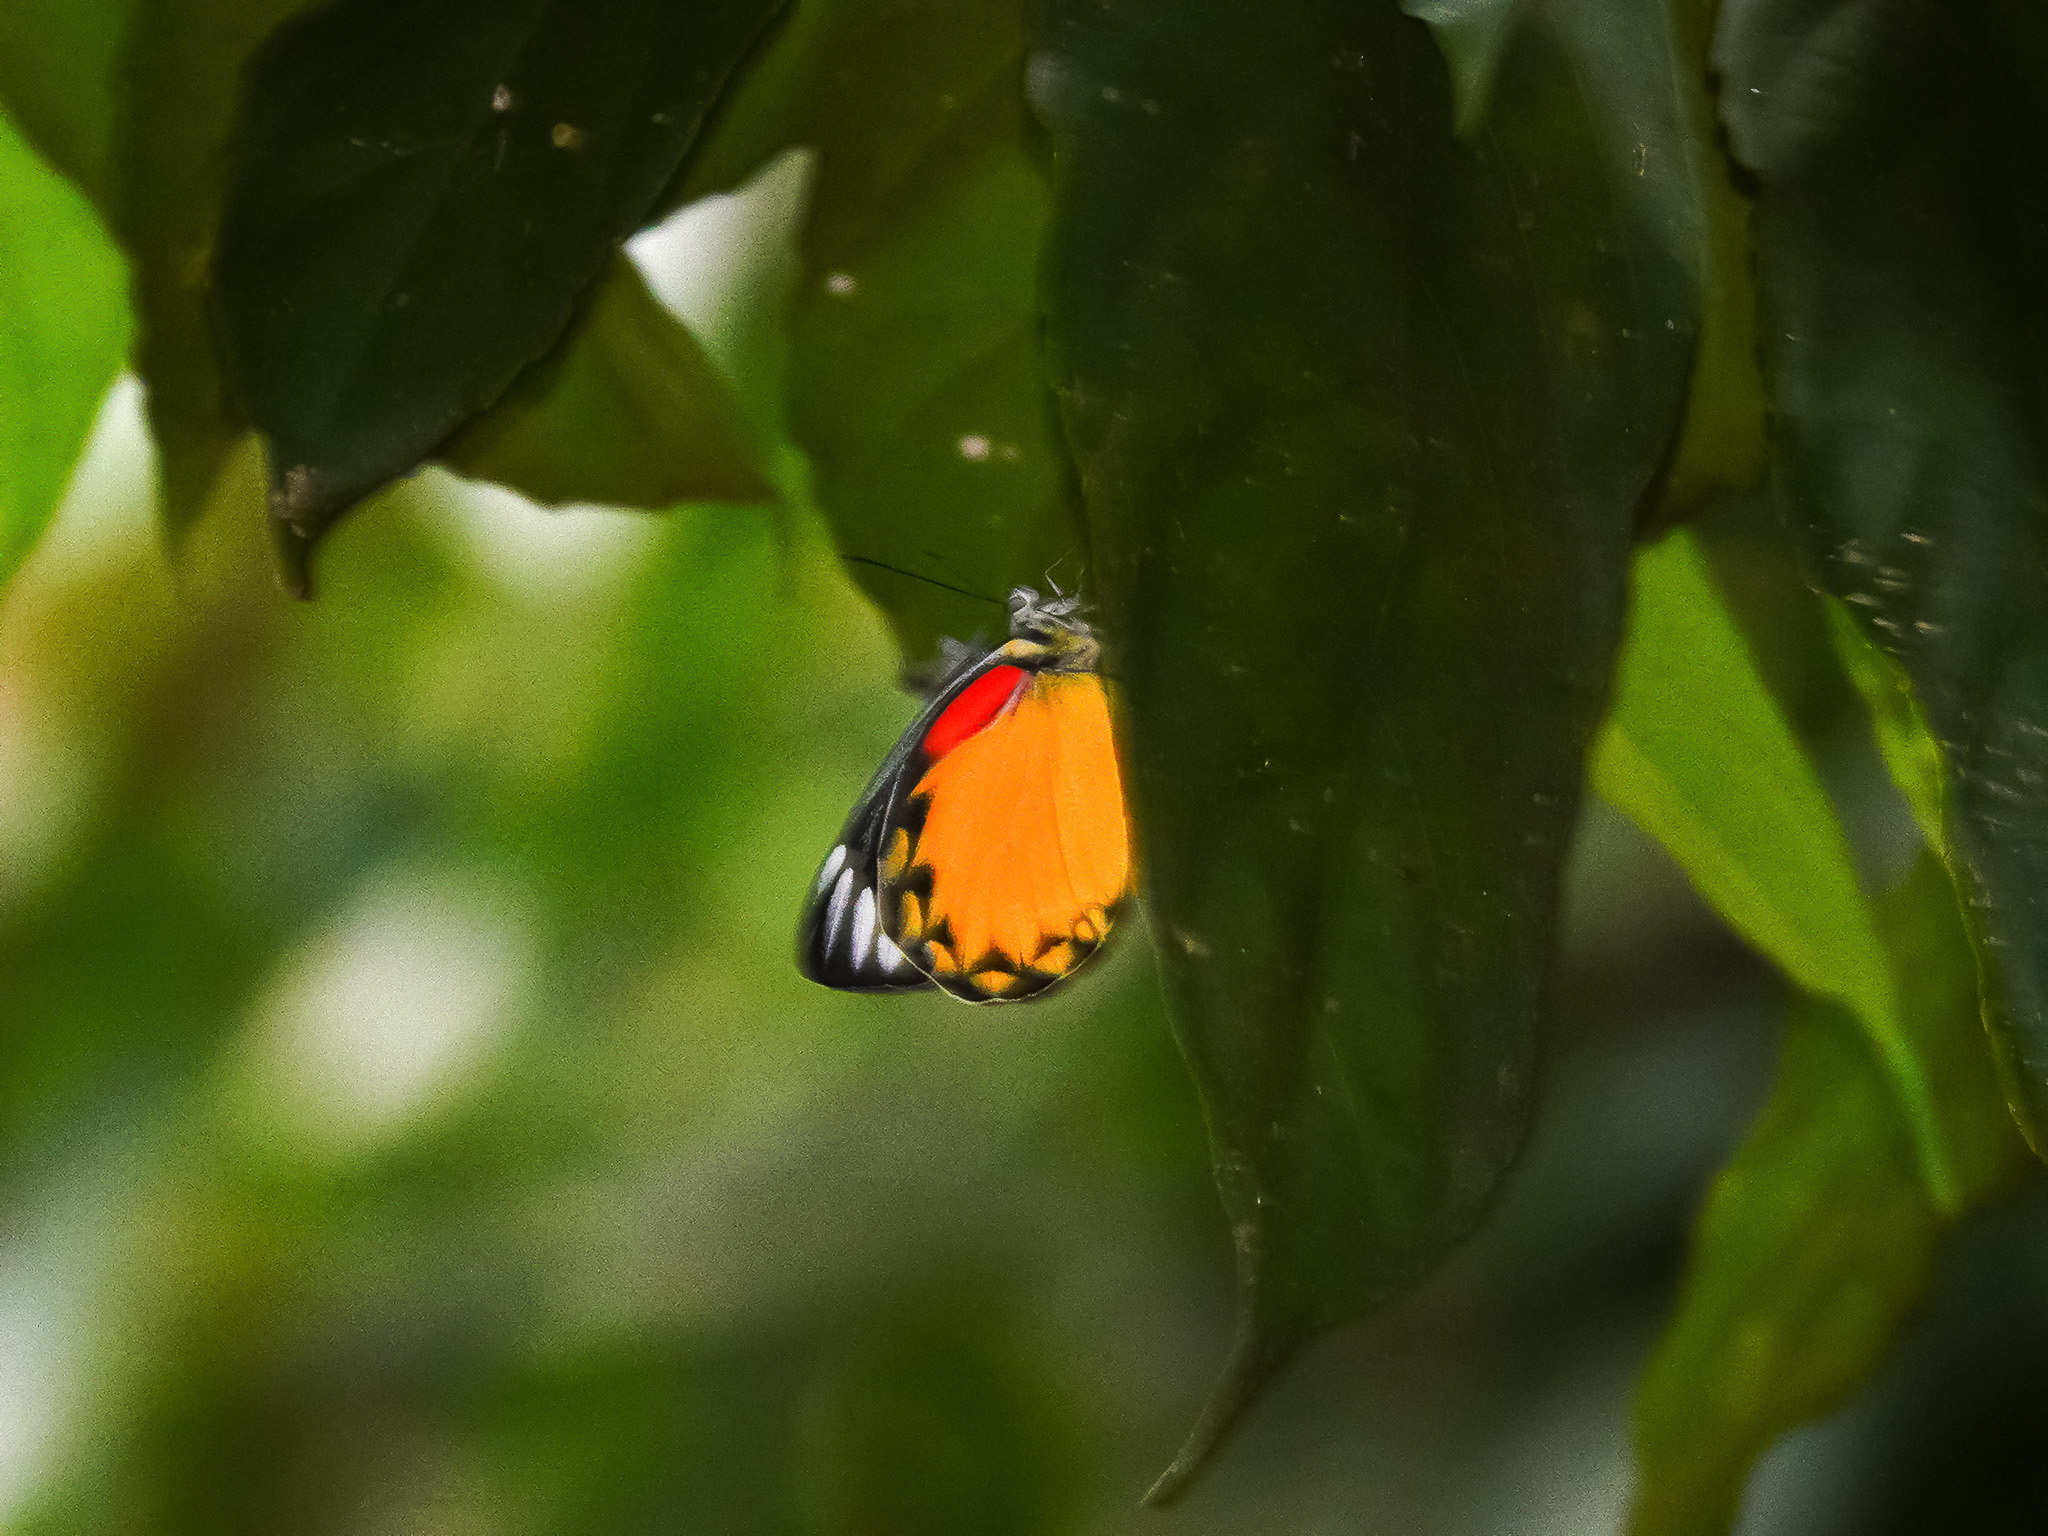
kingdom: Animalia
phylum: Arthropoda
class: Insecta
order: Lepidoptera
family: Pieridae
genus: Delias
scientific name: Delias descombesi
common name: Red-spot jezebel
